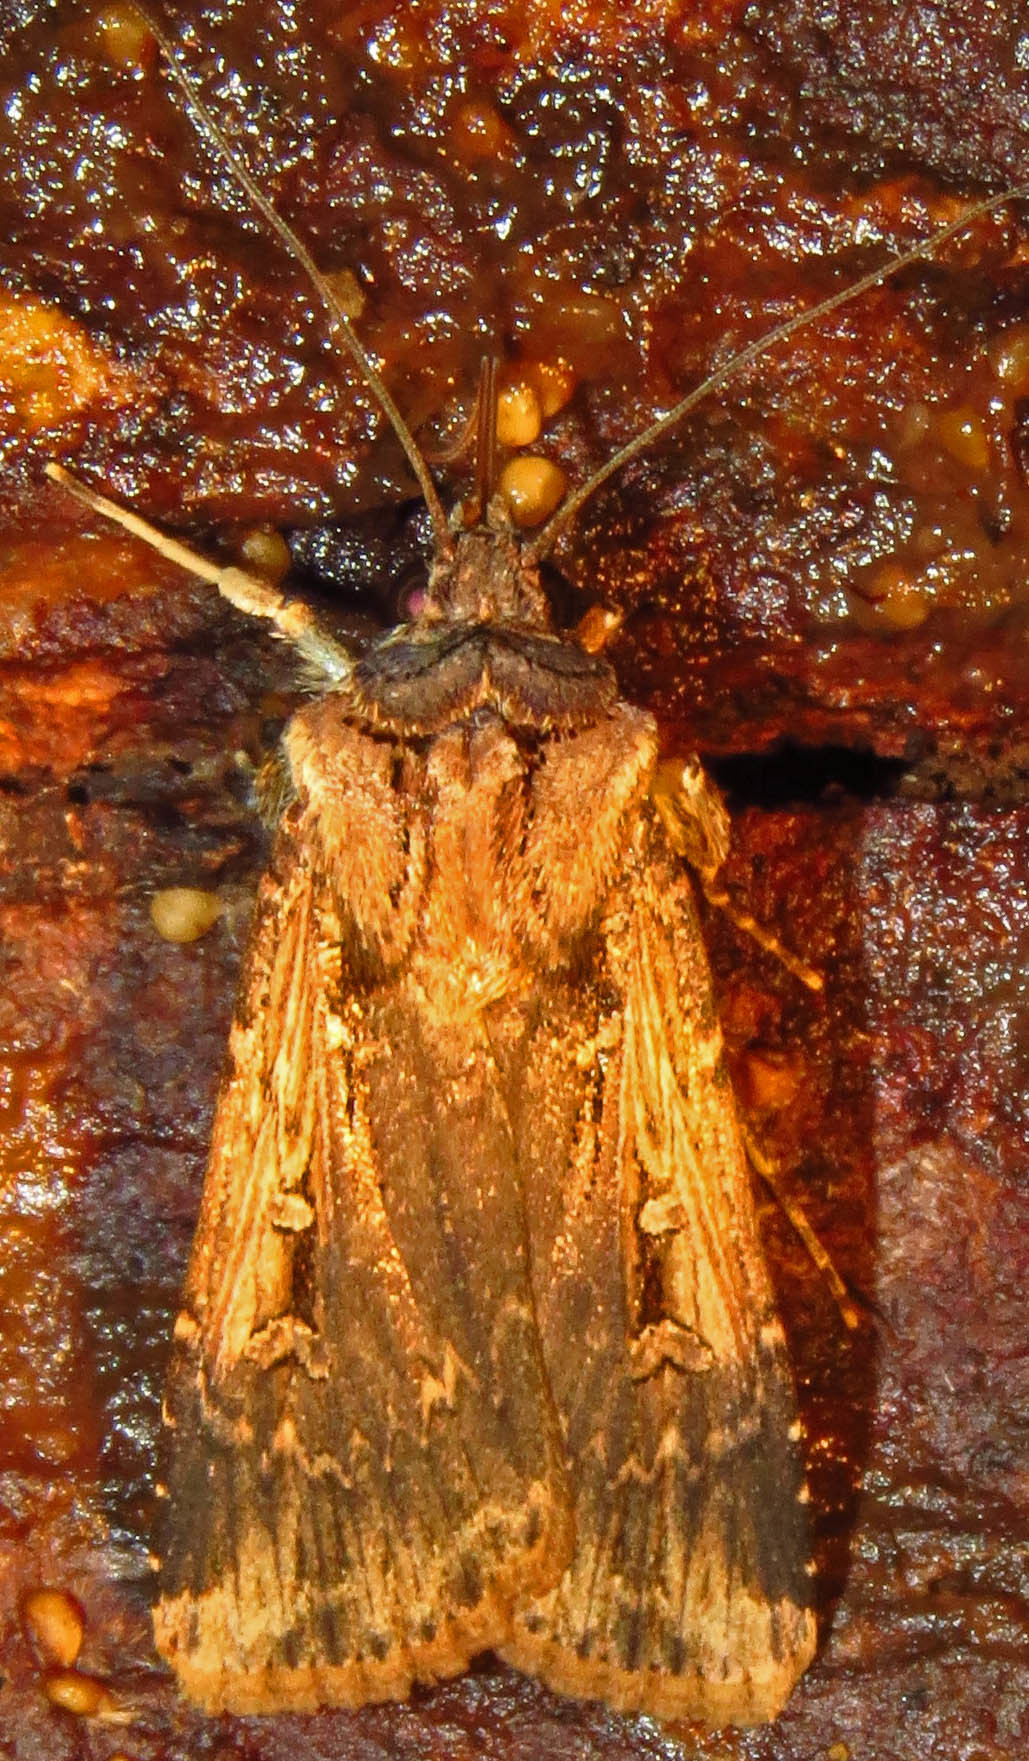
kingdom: Animalia
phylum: Arthropoda
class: Insecta
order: Lepidoptera
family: Noctuidae
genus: Feltia
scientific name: Feltia subterranea
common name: Granulate cutworm
